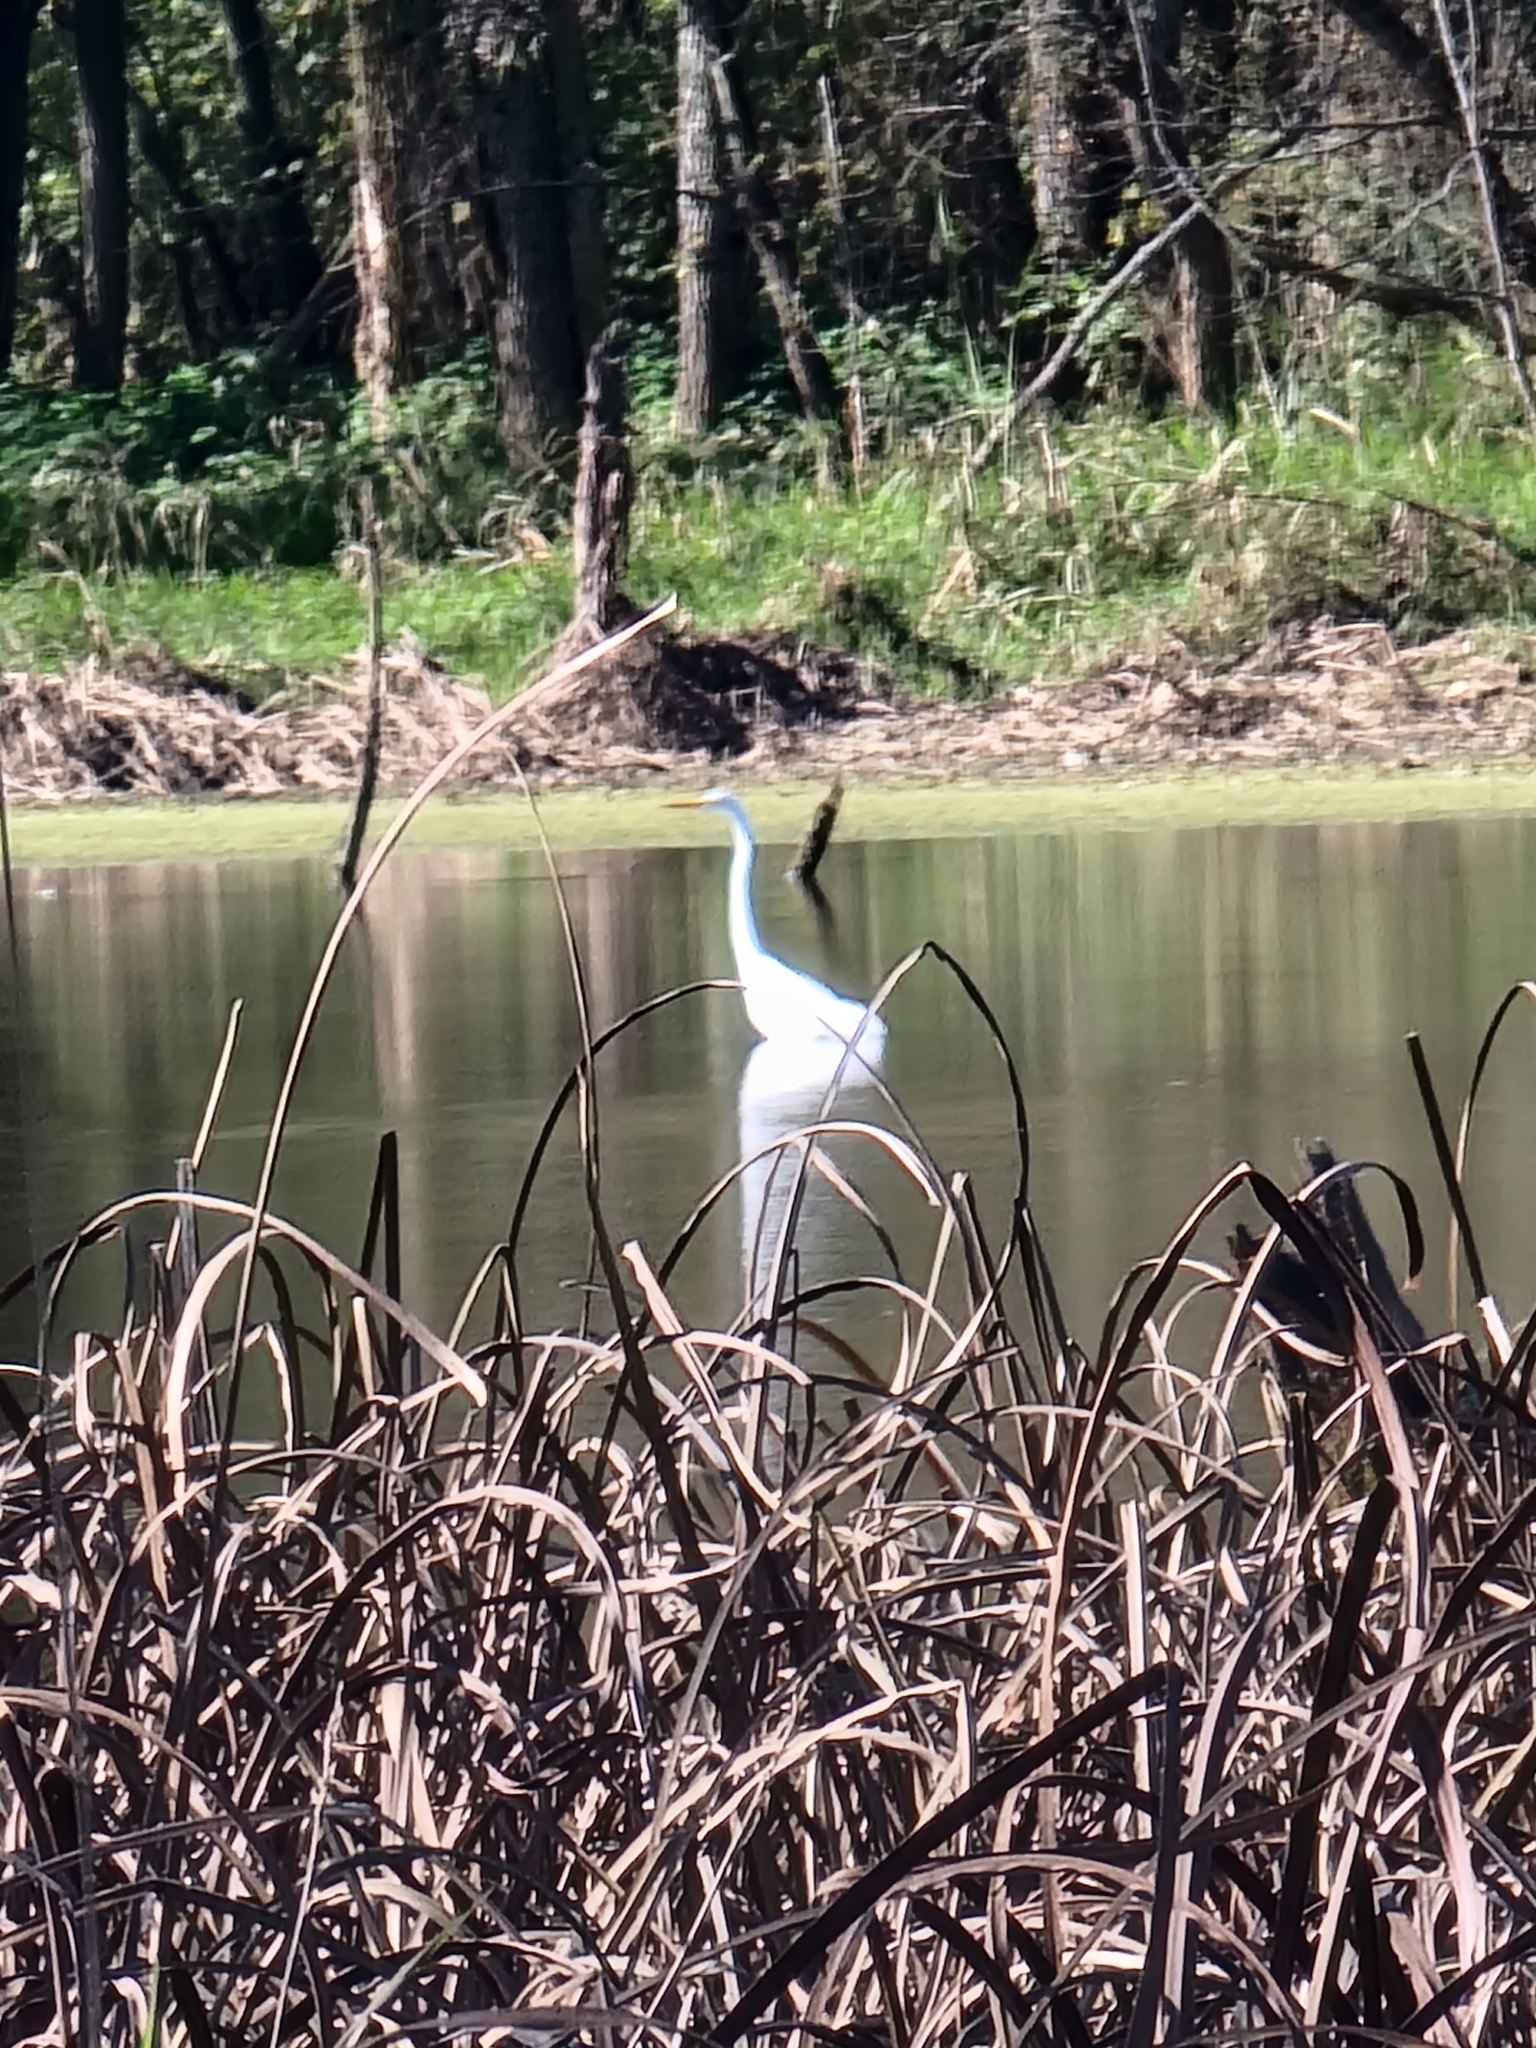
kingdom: Animalia
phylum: Chordata
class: Aves
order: Pelecaniformes
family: Ardeidae
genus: Ardea
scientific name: Ardea alba
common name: Great egret
